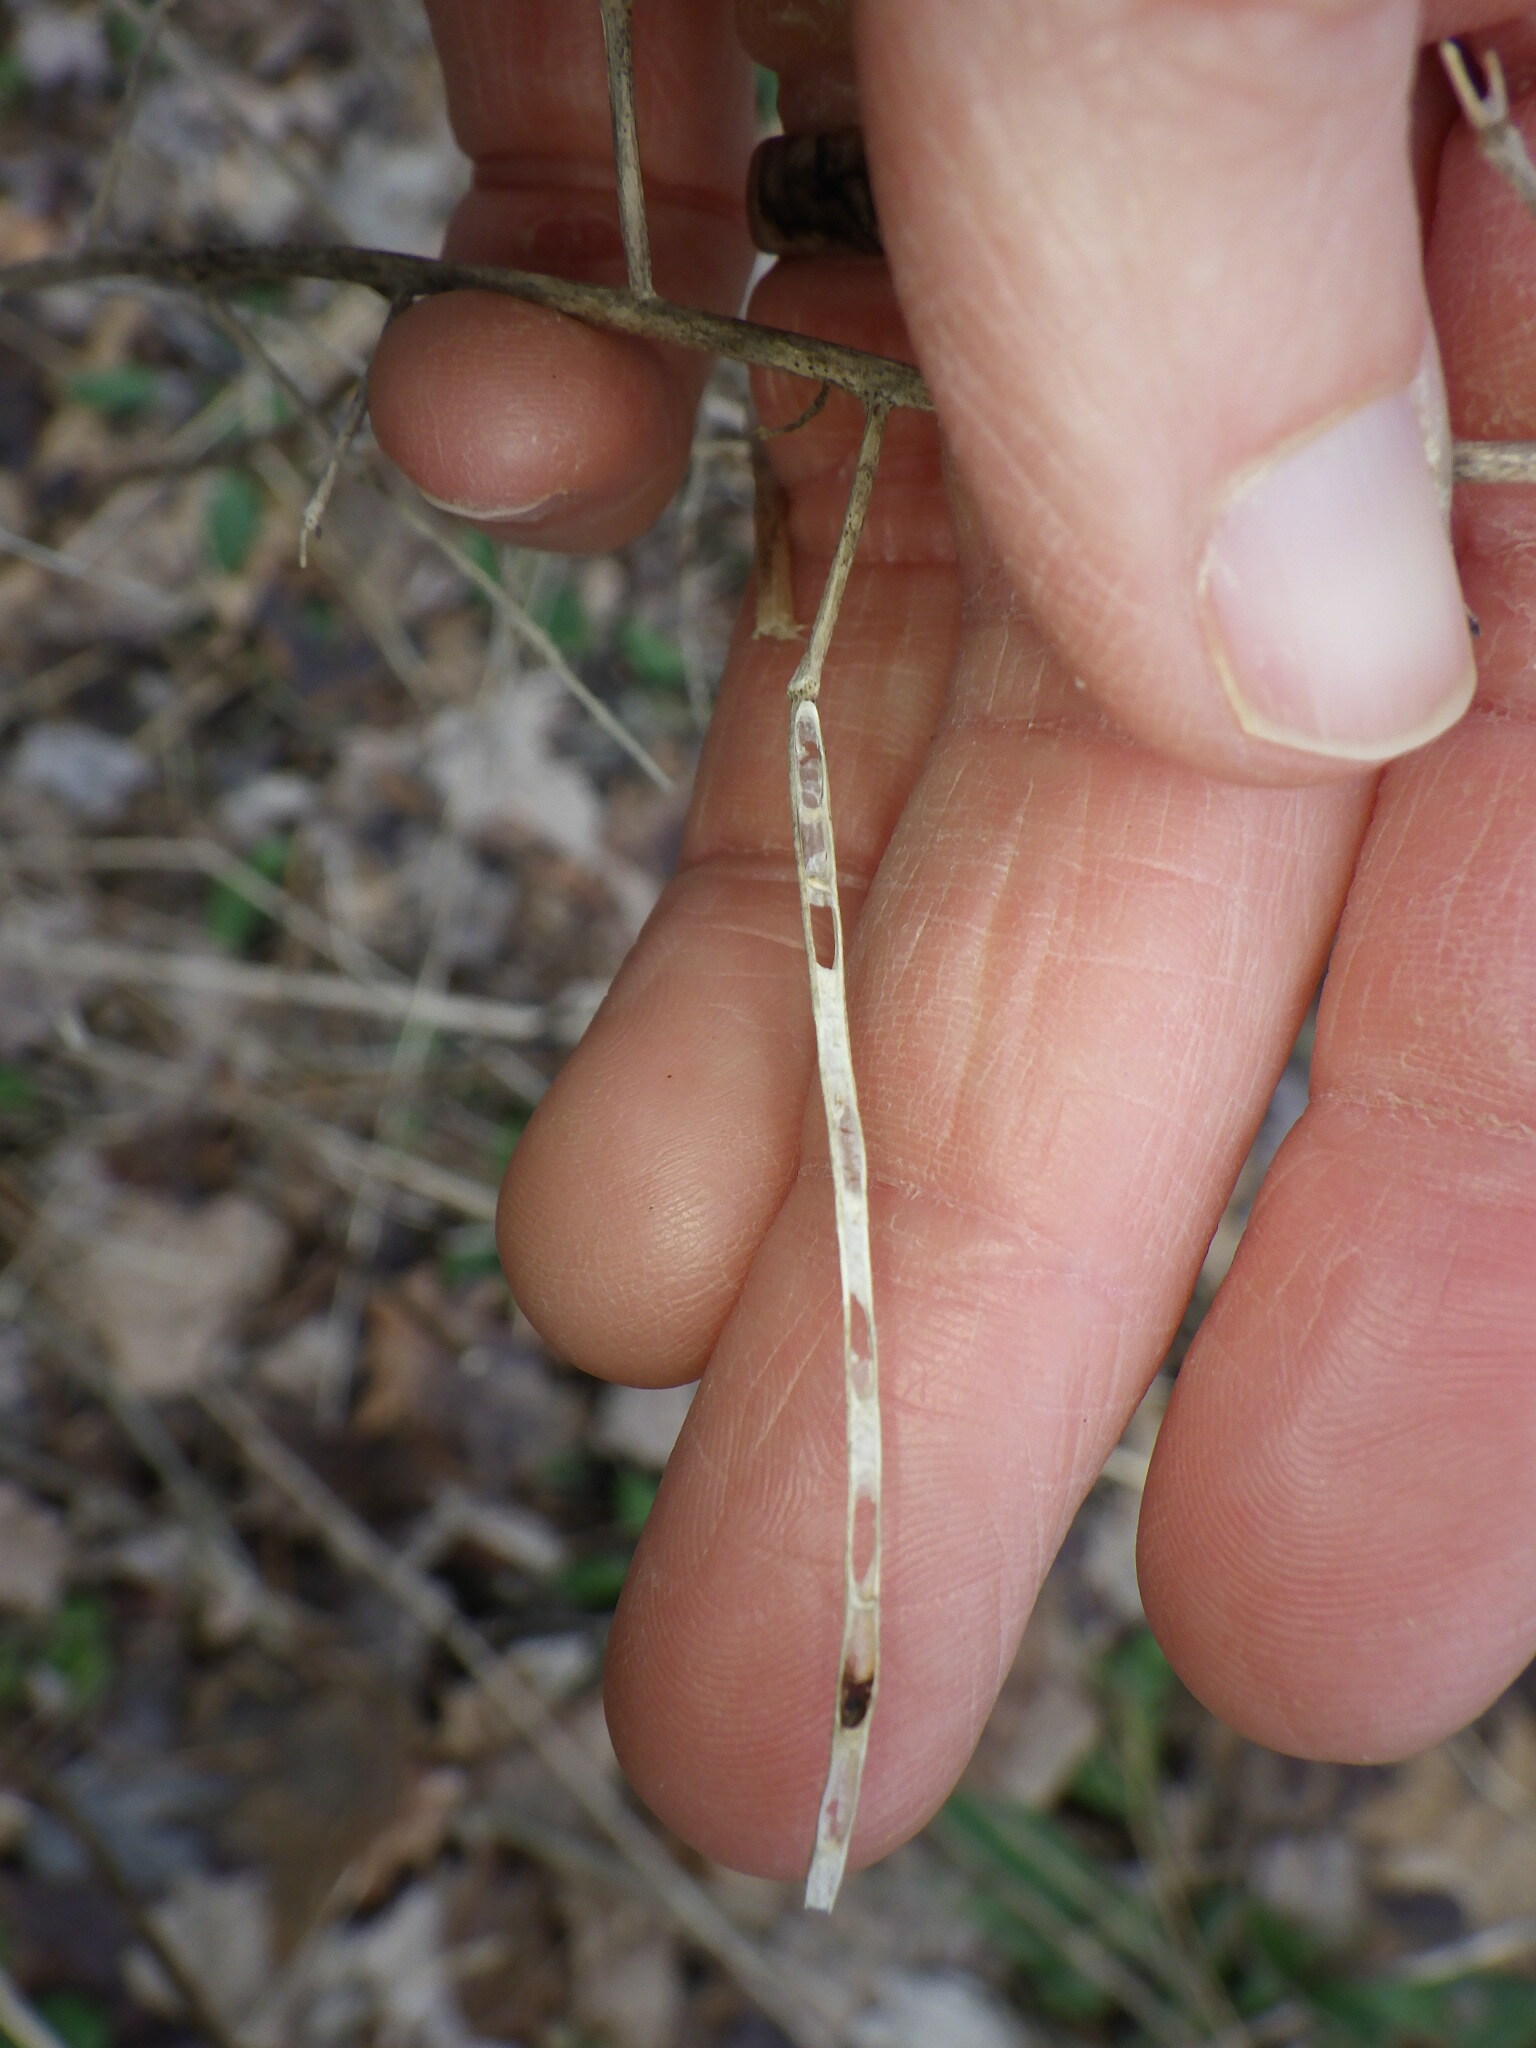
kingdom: Plantae
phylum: Tracheophyta
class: Magnoliopsida
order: Brassicales
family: Brassicaceae
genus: Hesperis
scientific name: Hesperis matronalis
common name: Dame's-violet
